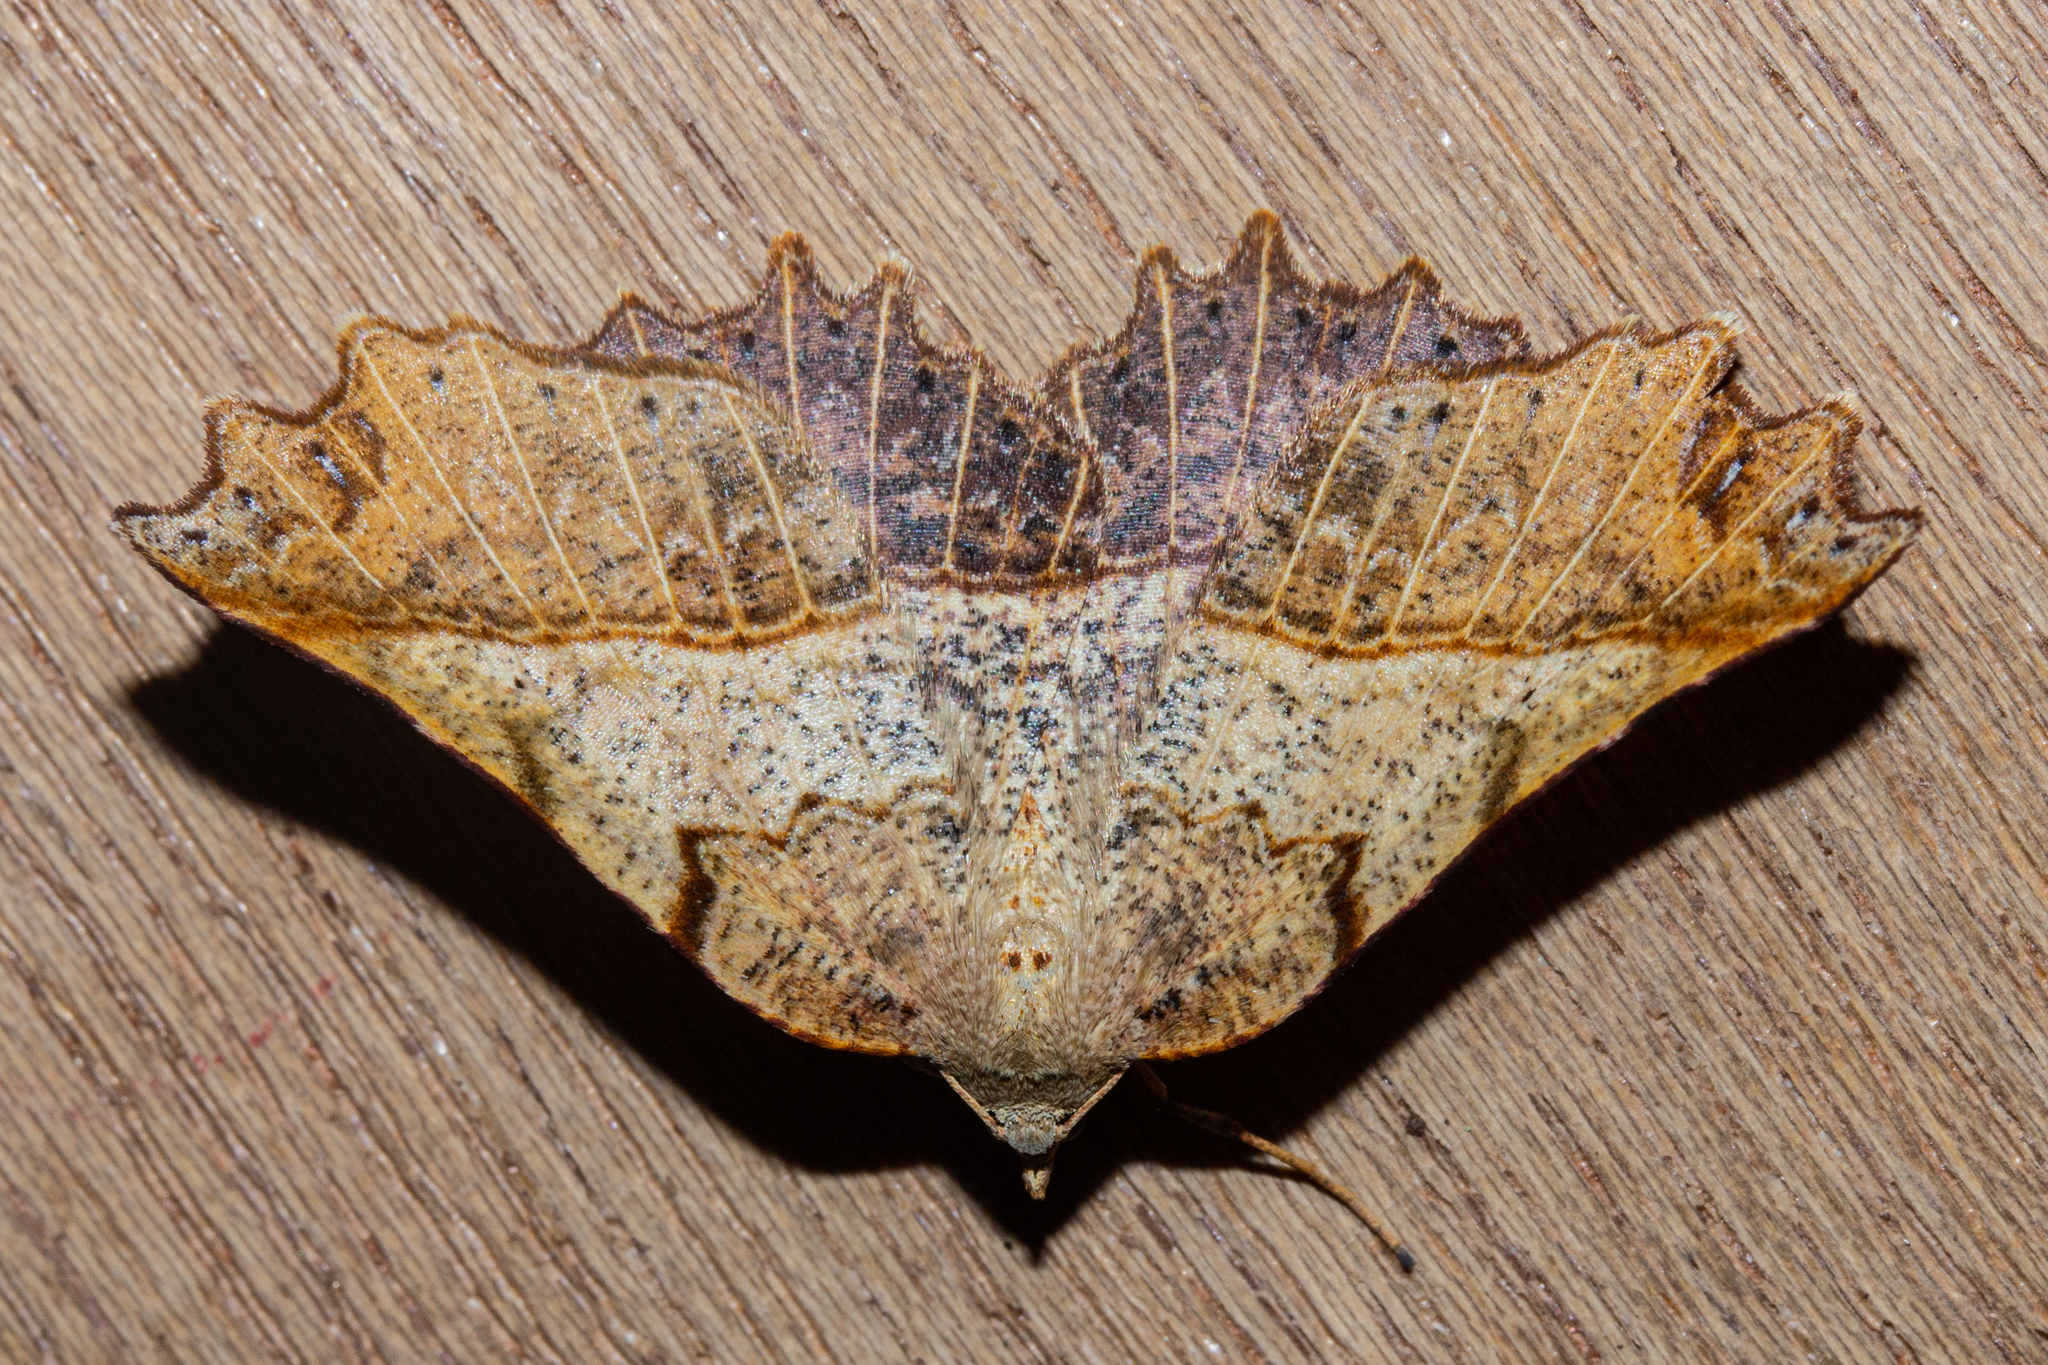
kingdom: Animalia
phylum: Arthropoda
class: Insecta
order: Lepidoptera
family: Geometridae
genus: Ischalis
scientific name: Ischalis gallaria
